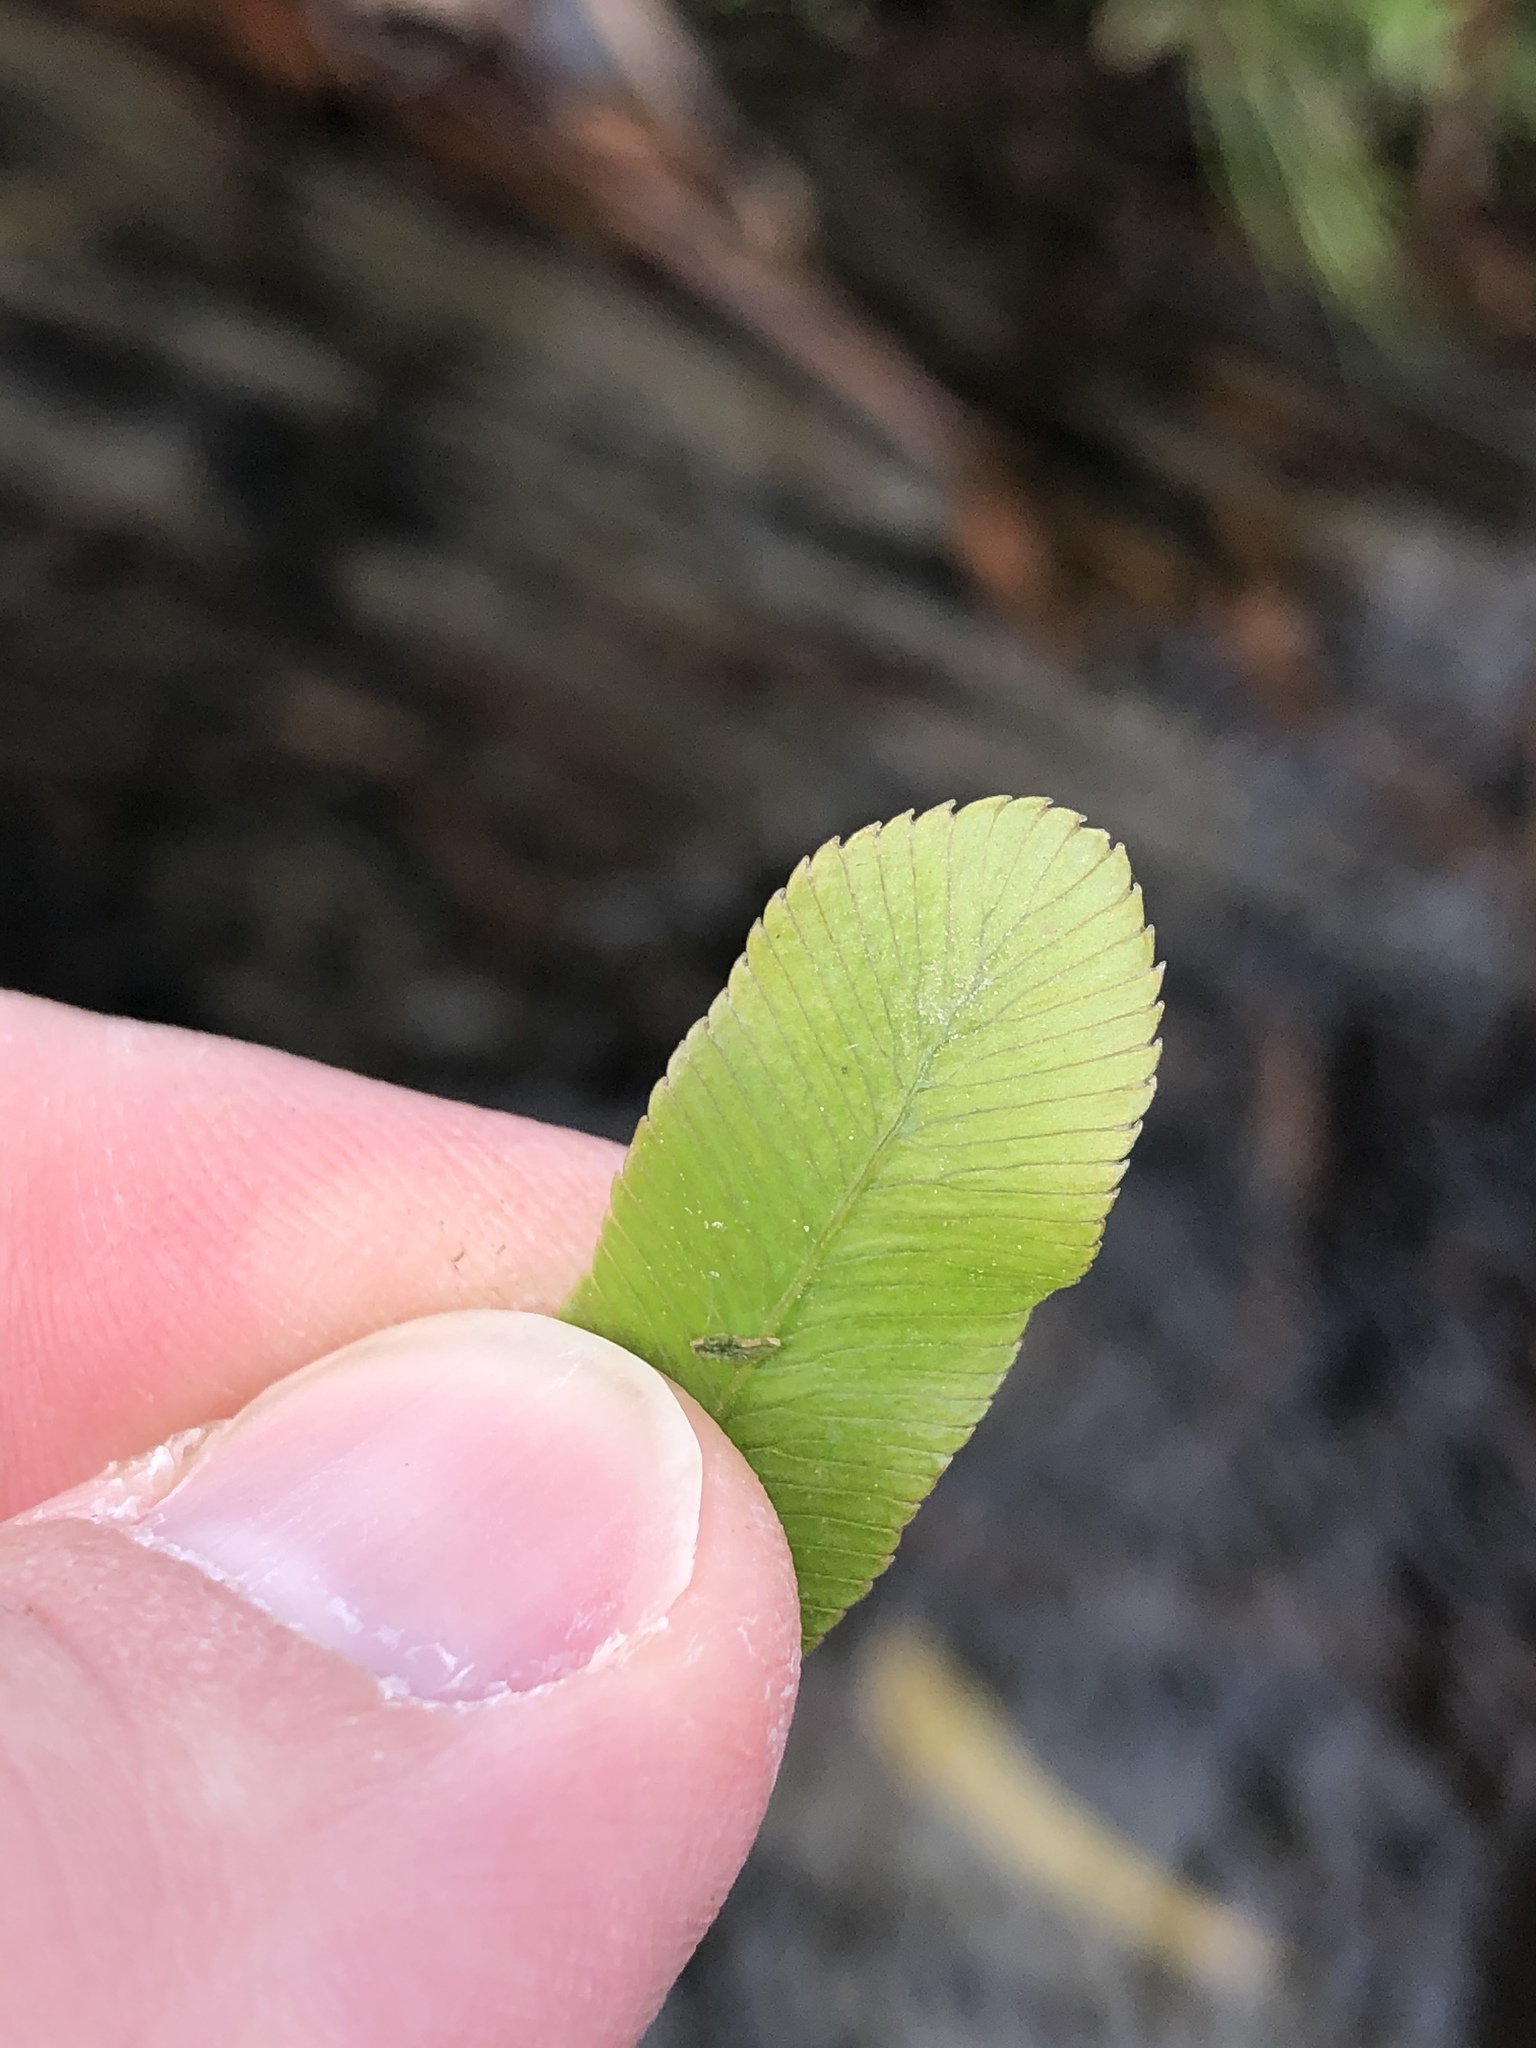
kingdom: Plantae
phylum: Tracheophyta
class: Polypodiopsida
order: Polypodiales
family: Blechnaceae
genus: Parablechnum
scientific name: Parablechnum minus
